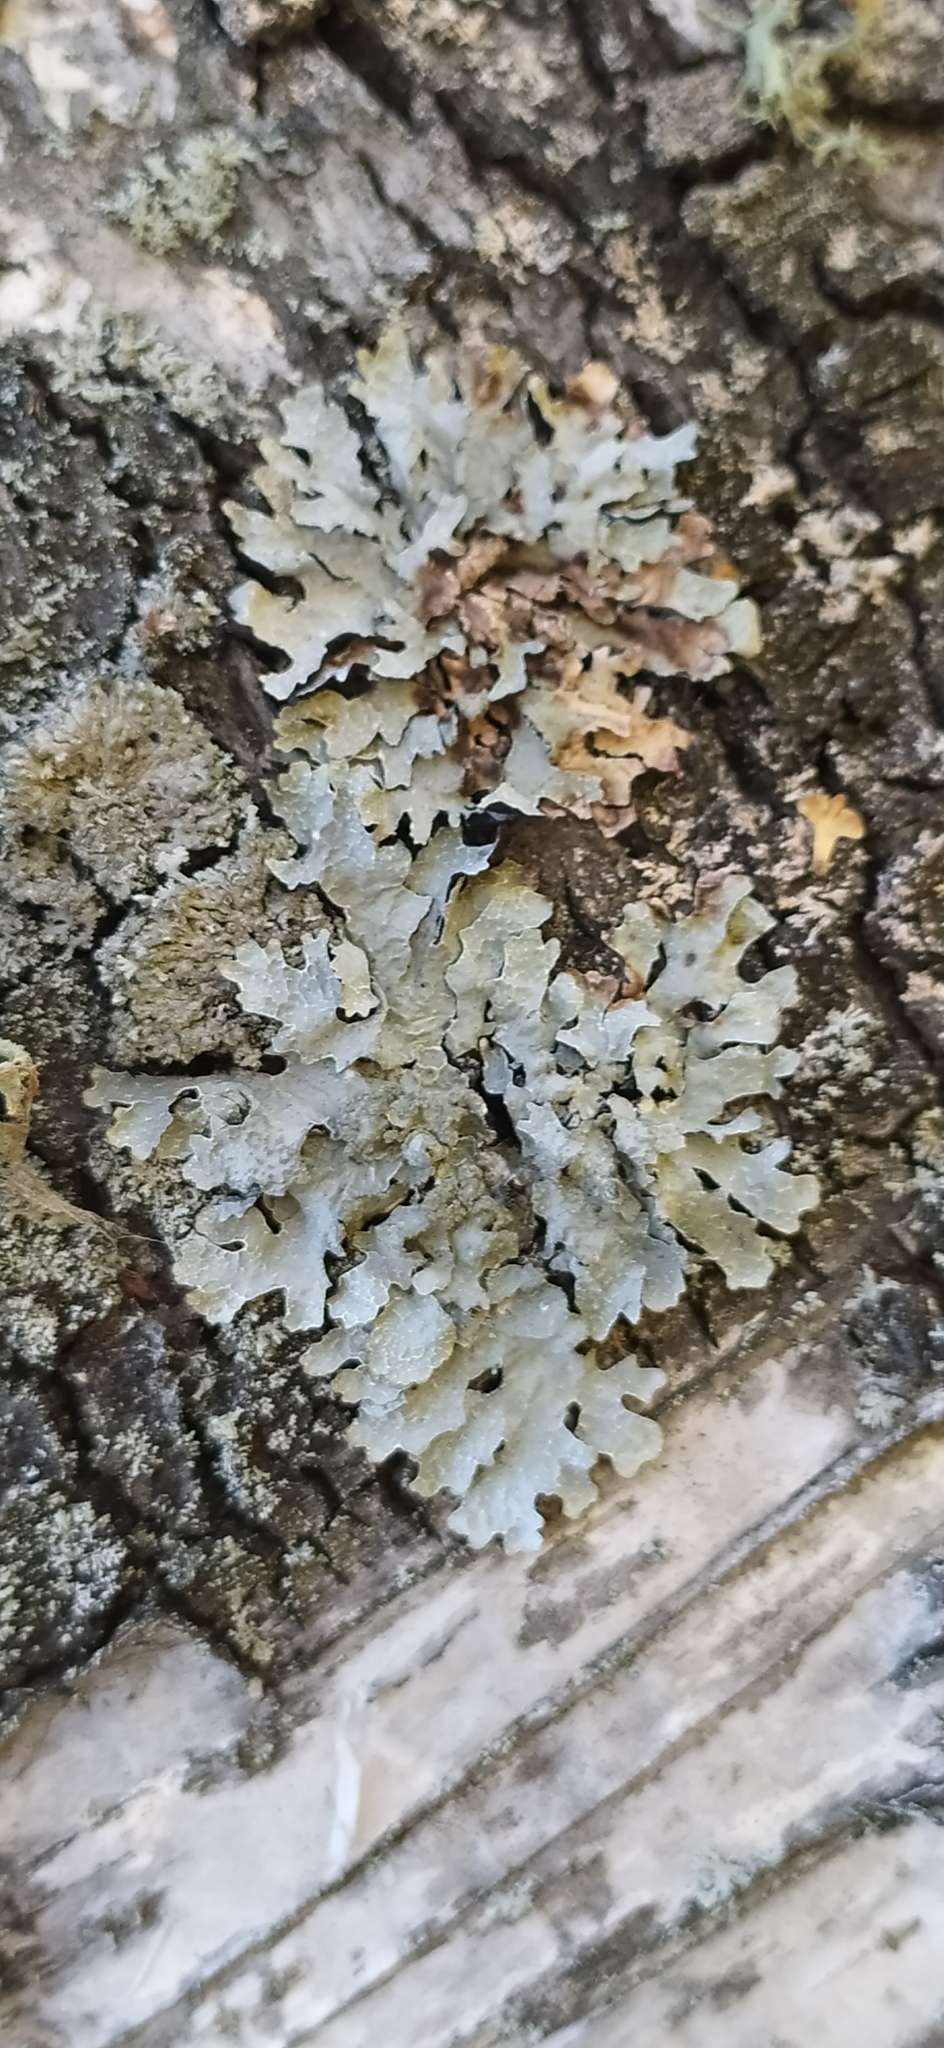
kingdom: Fungi
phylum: Ascomycota
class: Lecanoromycetes
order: Lecanorales
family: Parmeliaceae
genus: Parmelia
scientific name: Parmelia sulcata
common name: Netted shield lichen
